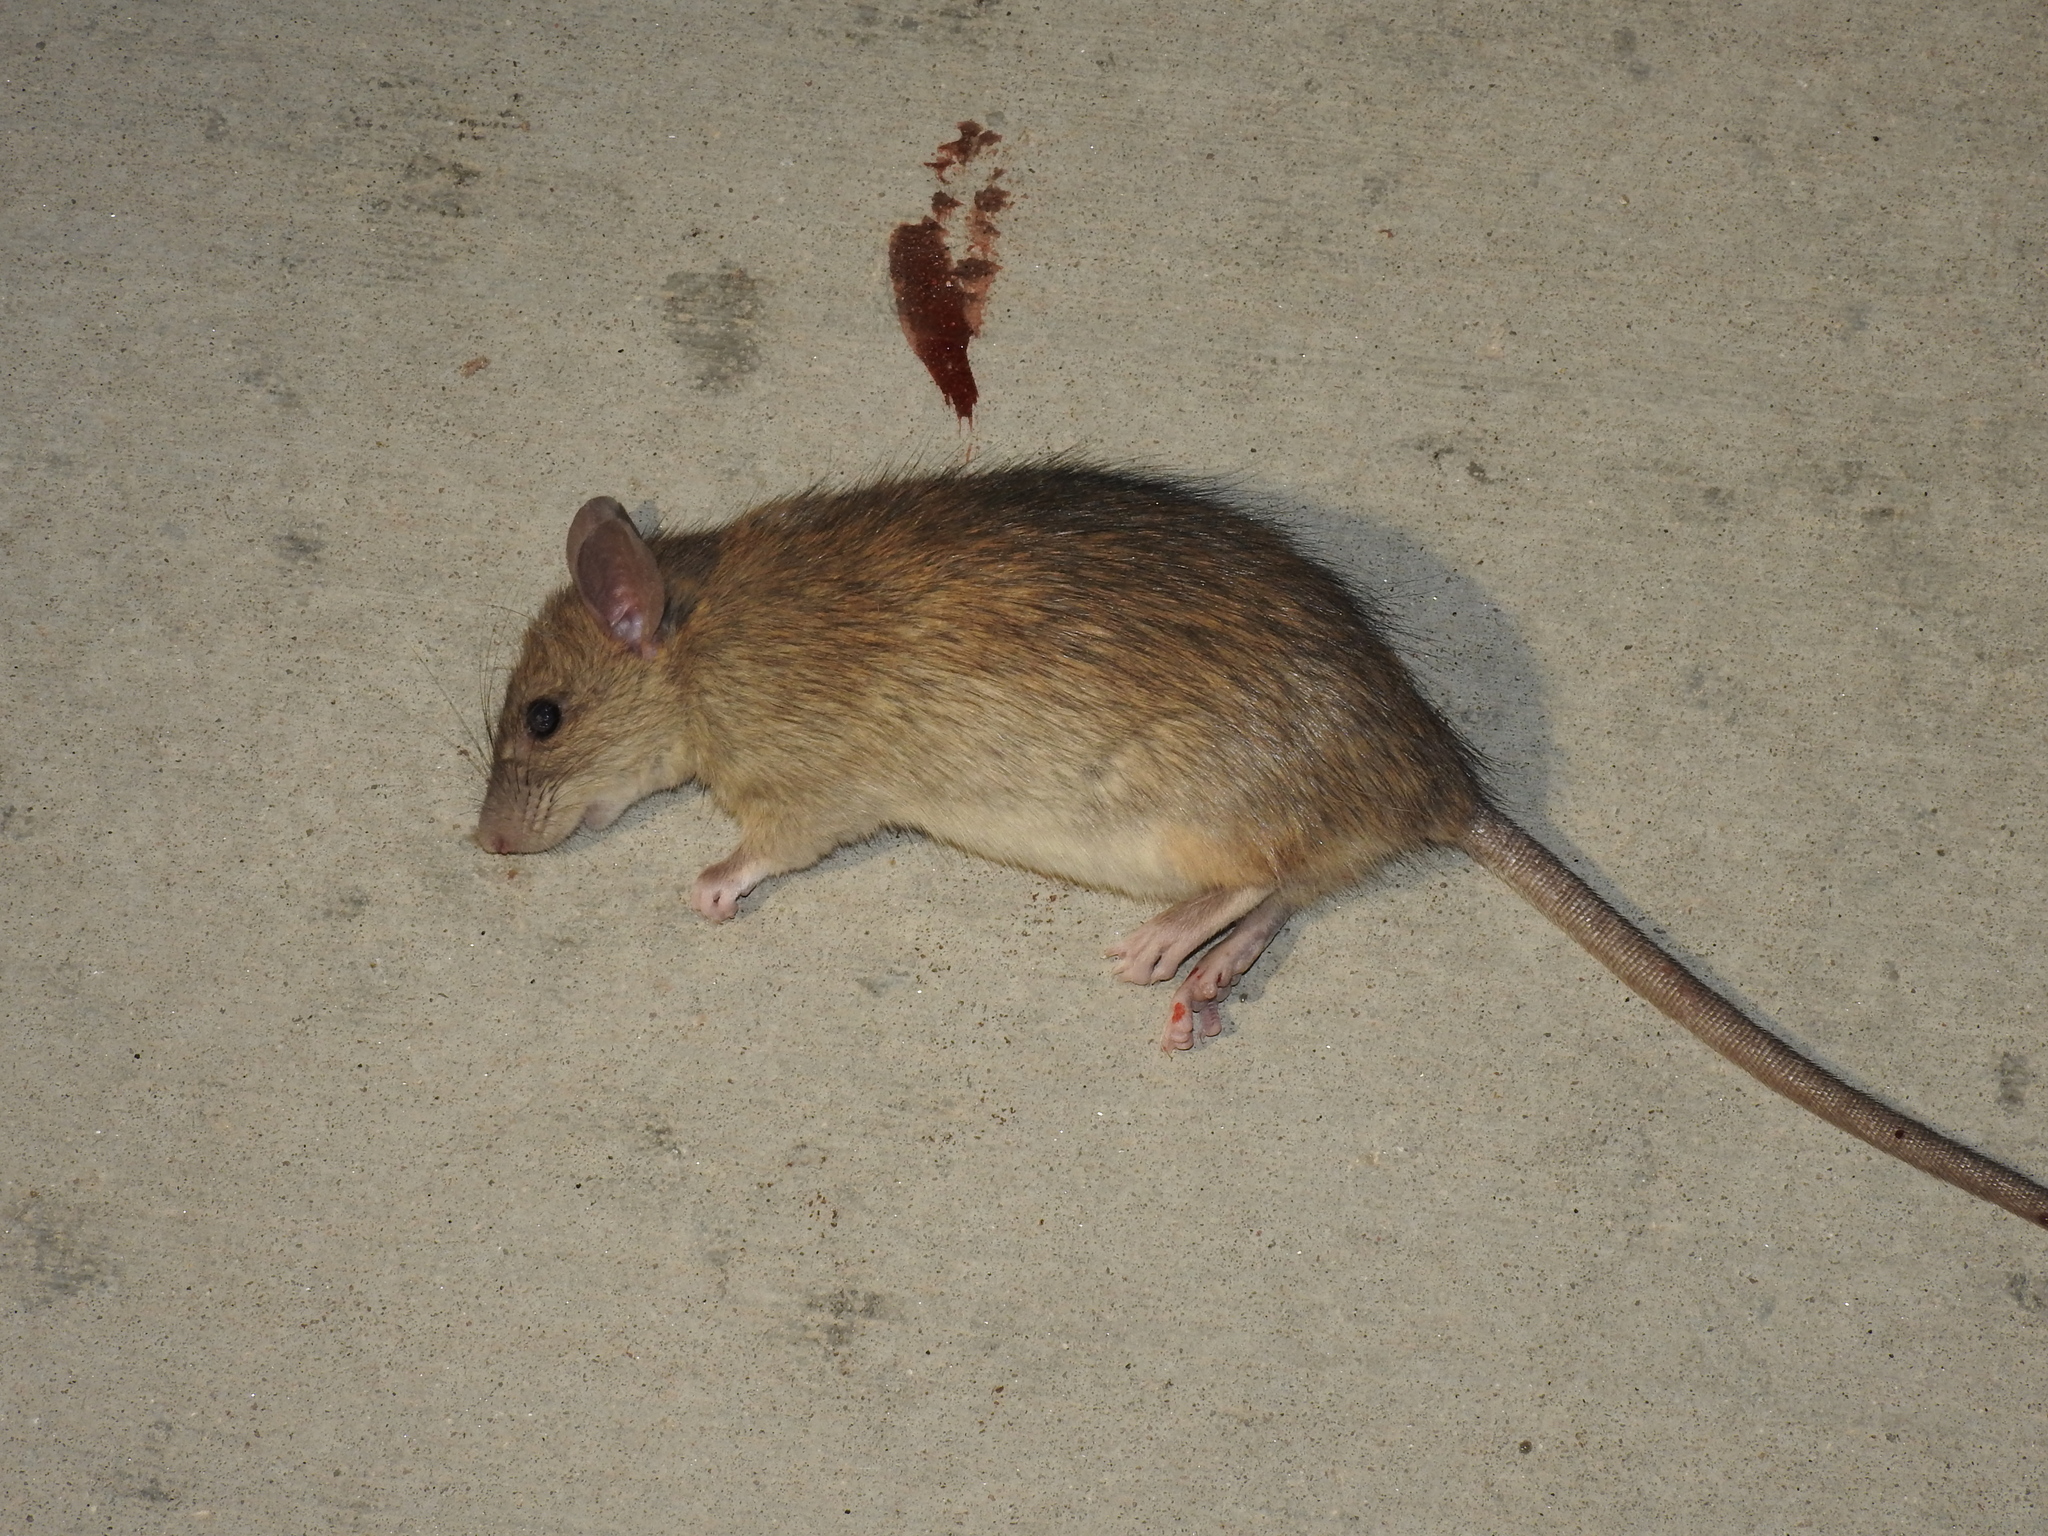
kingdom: Animalia
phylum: Chordata
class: Mammalia
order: Rodentia
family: Muridae
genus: Rattus
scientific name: Rattus rattus
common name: Black rat
